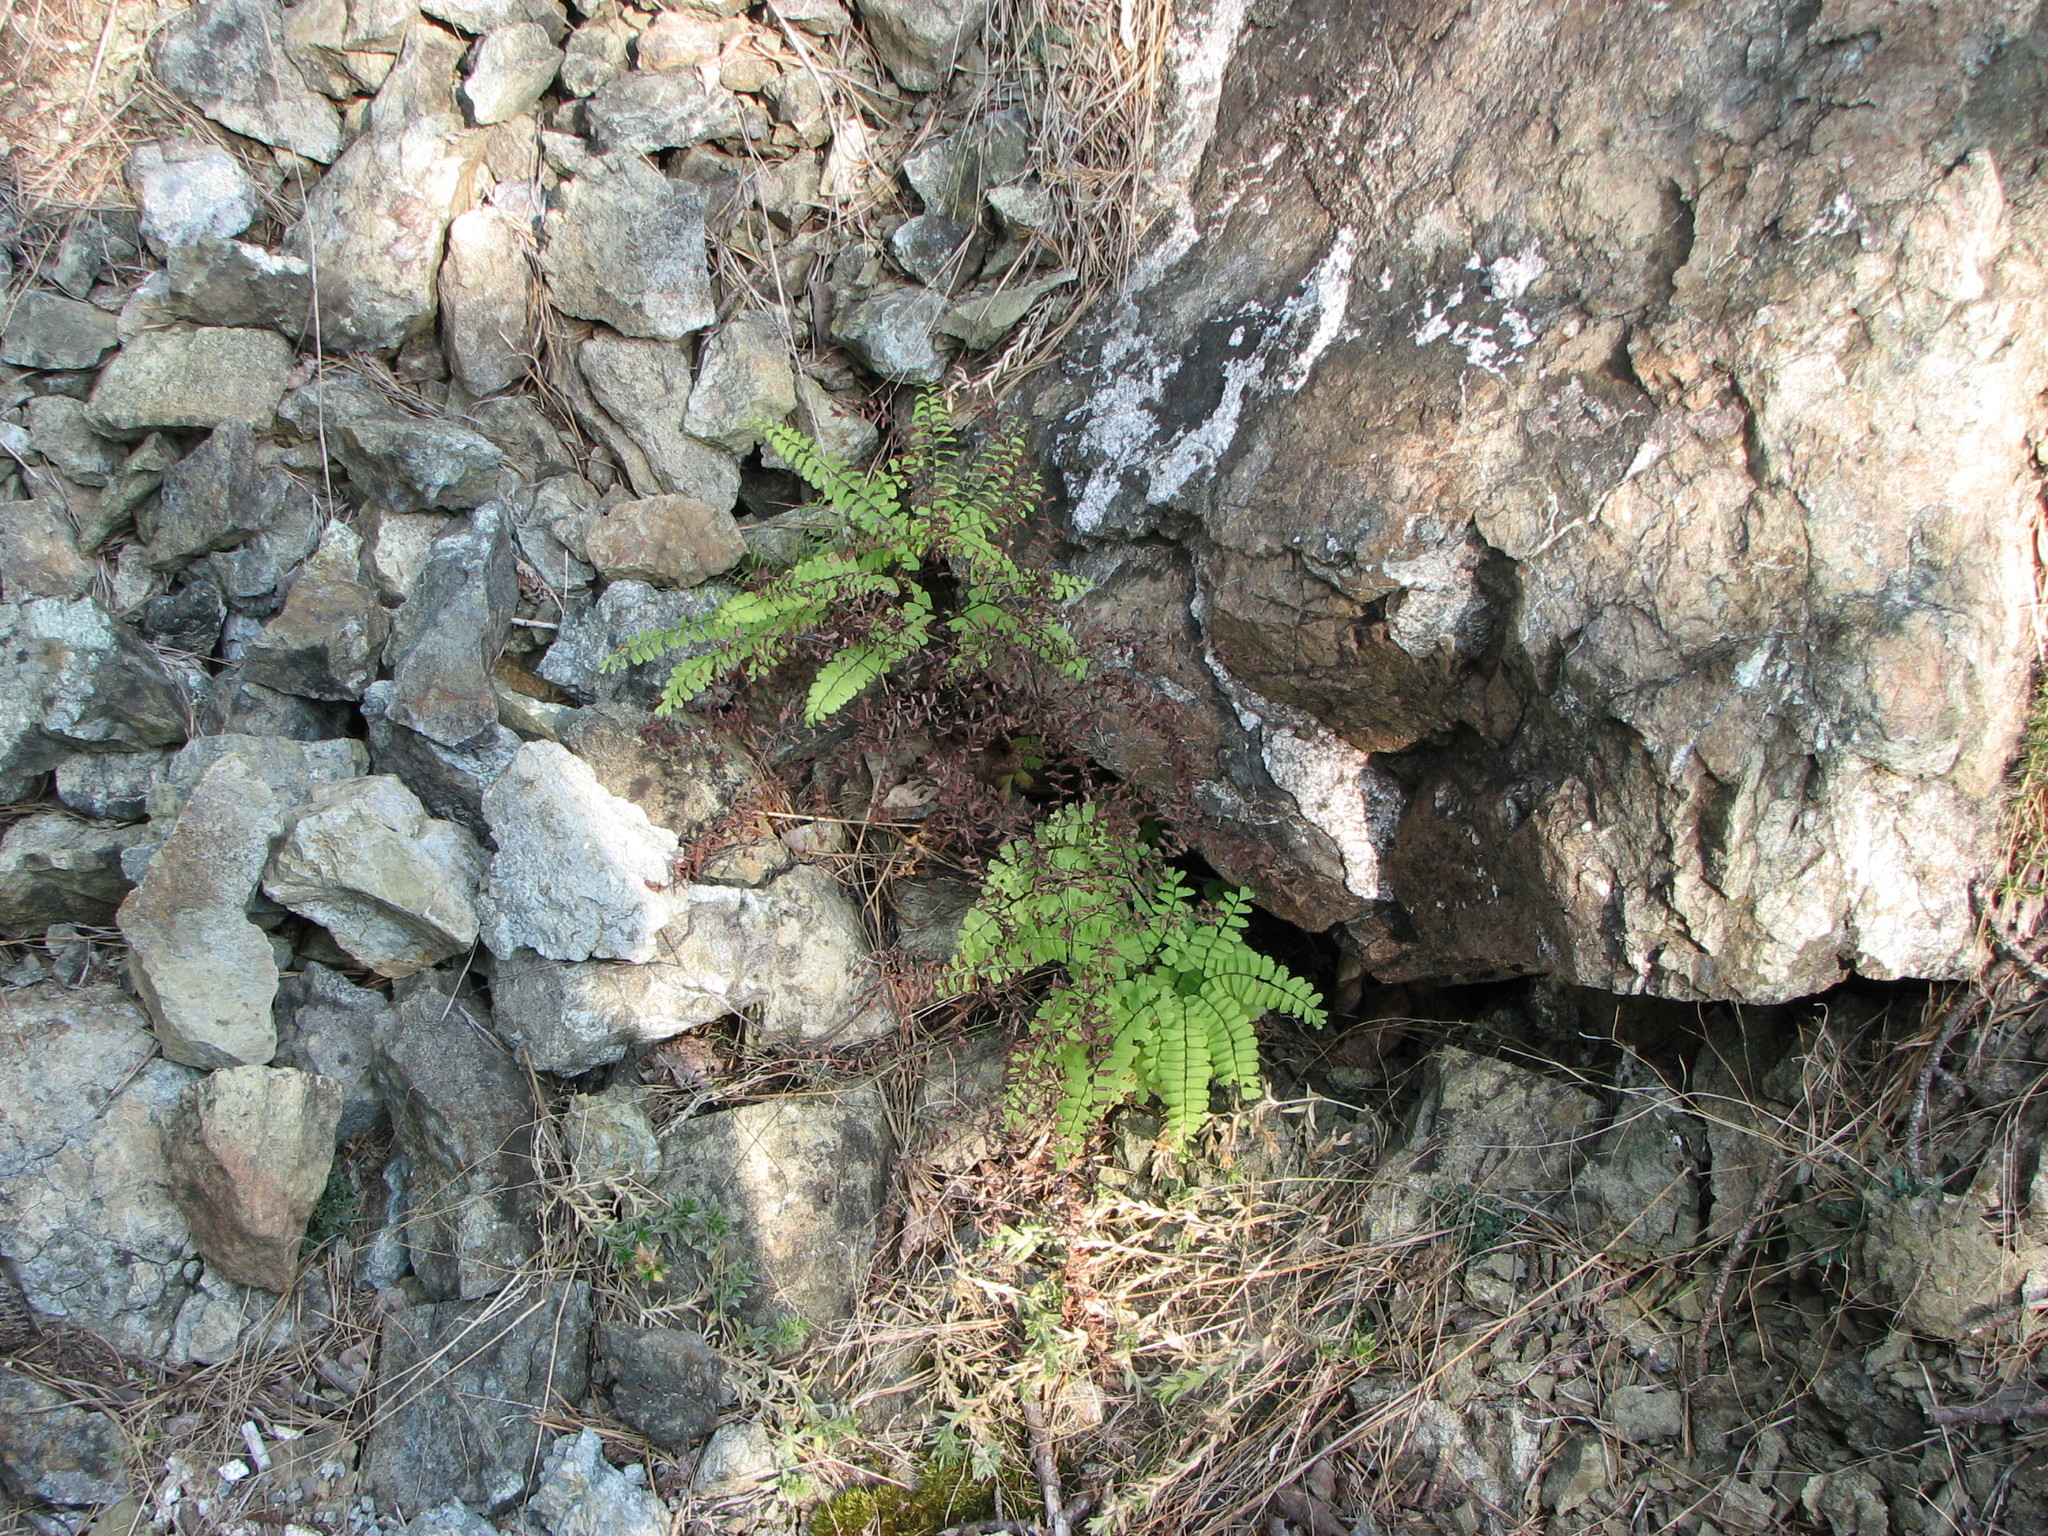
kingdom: Plantae
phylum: Tracheophyta
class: Polypodiopsida
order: Polypodiales
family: Pteridaceae
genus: Adiantum
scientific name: Adiantum pedatum
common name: Five-finger fern
